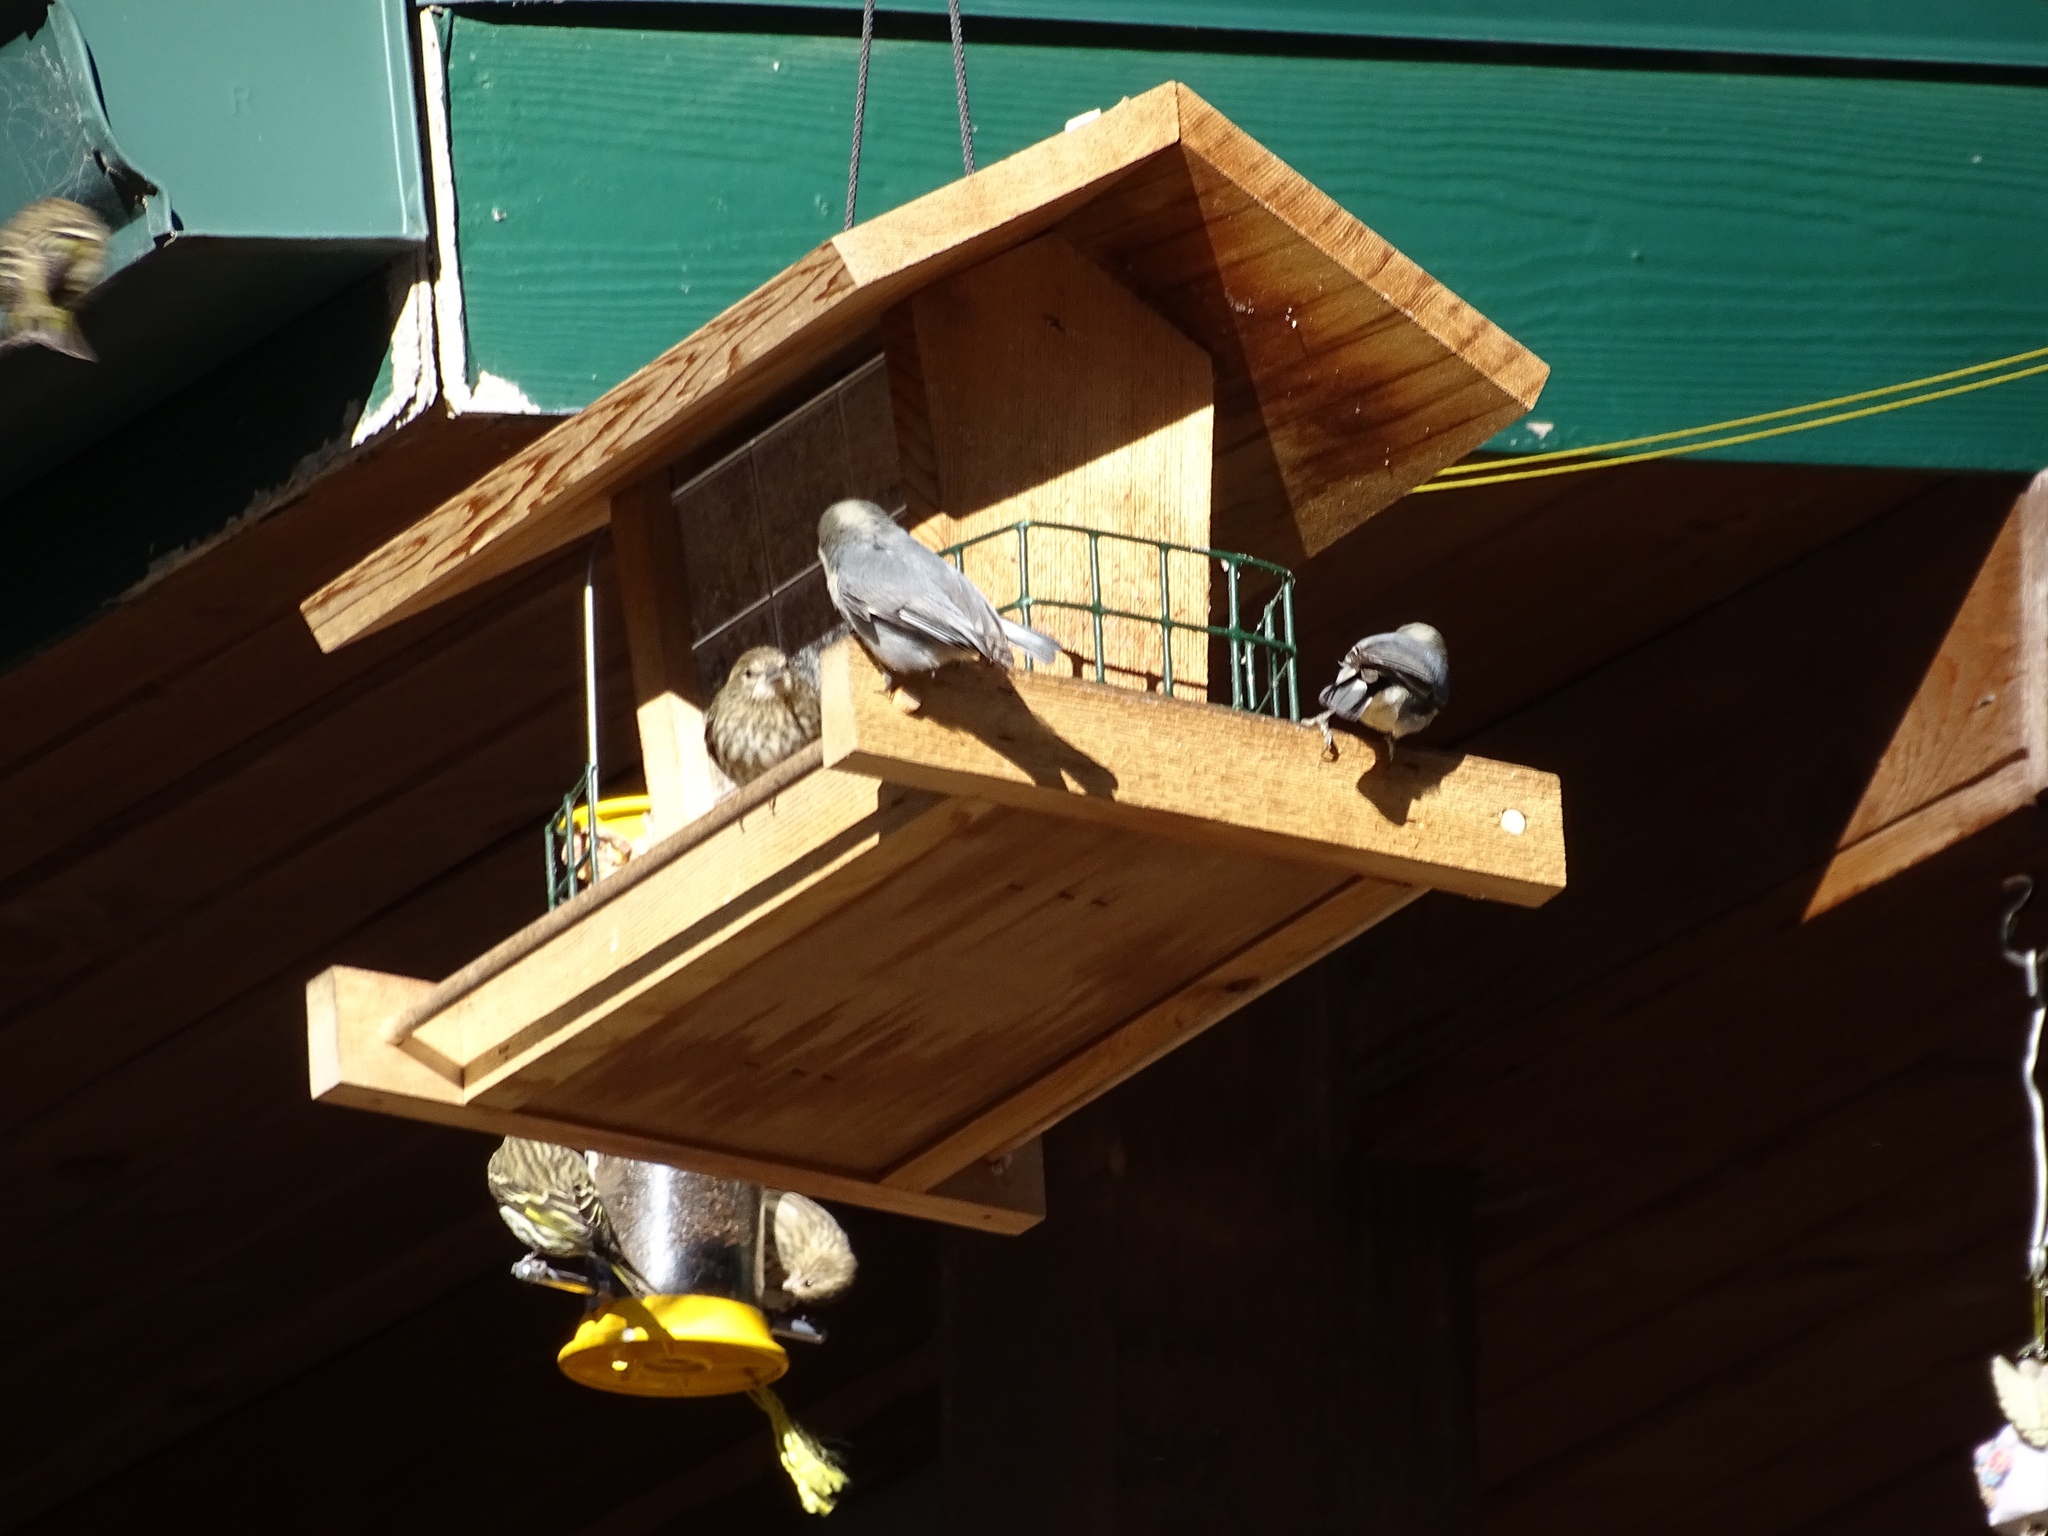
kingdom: Animalia
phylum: Chordata
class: Aves
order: Passeriformes
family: Sittidae
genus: Sitta
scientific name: Sitta pygmaea
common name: Pygmy nuthatch
